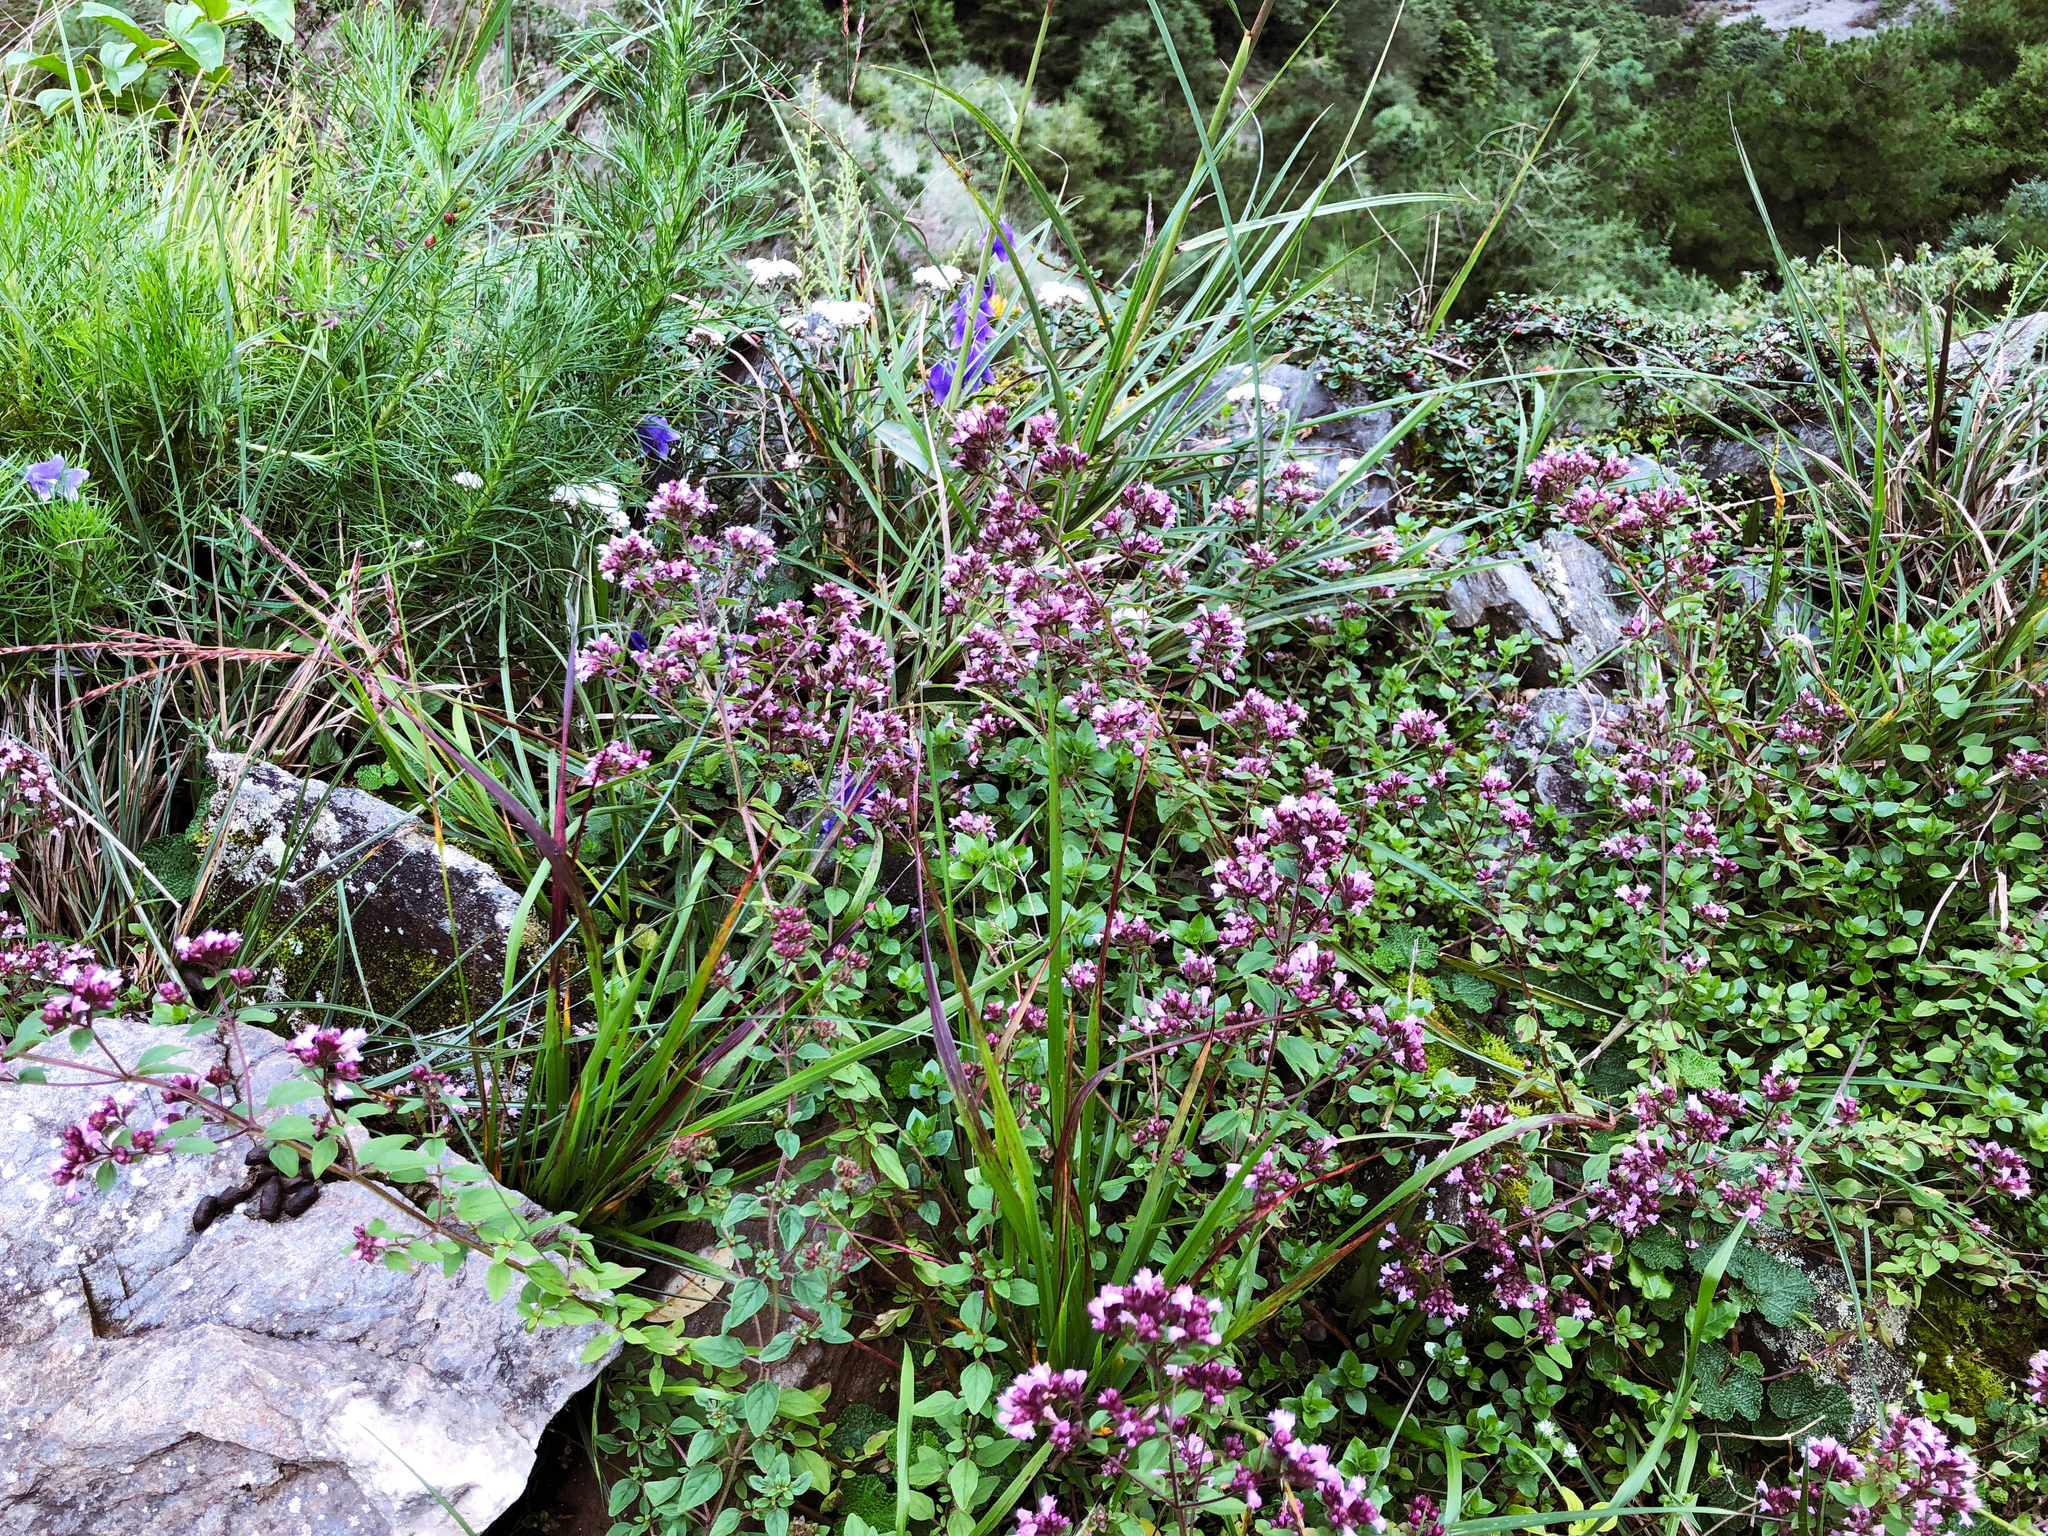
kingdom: Plantae
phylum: Tracheophyta
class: Magnoliopsida
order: Lamiales
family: Lamiaceae
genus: Origanum
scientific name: Origanum vulgare
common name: Wild marjoram
